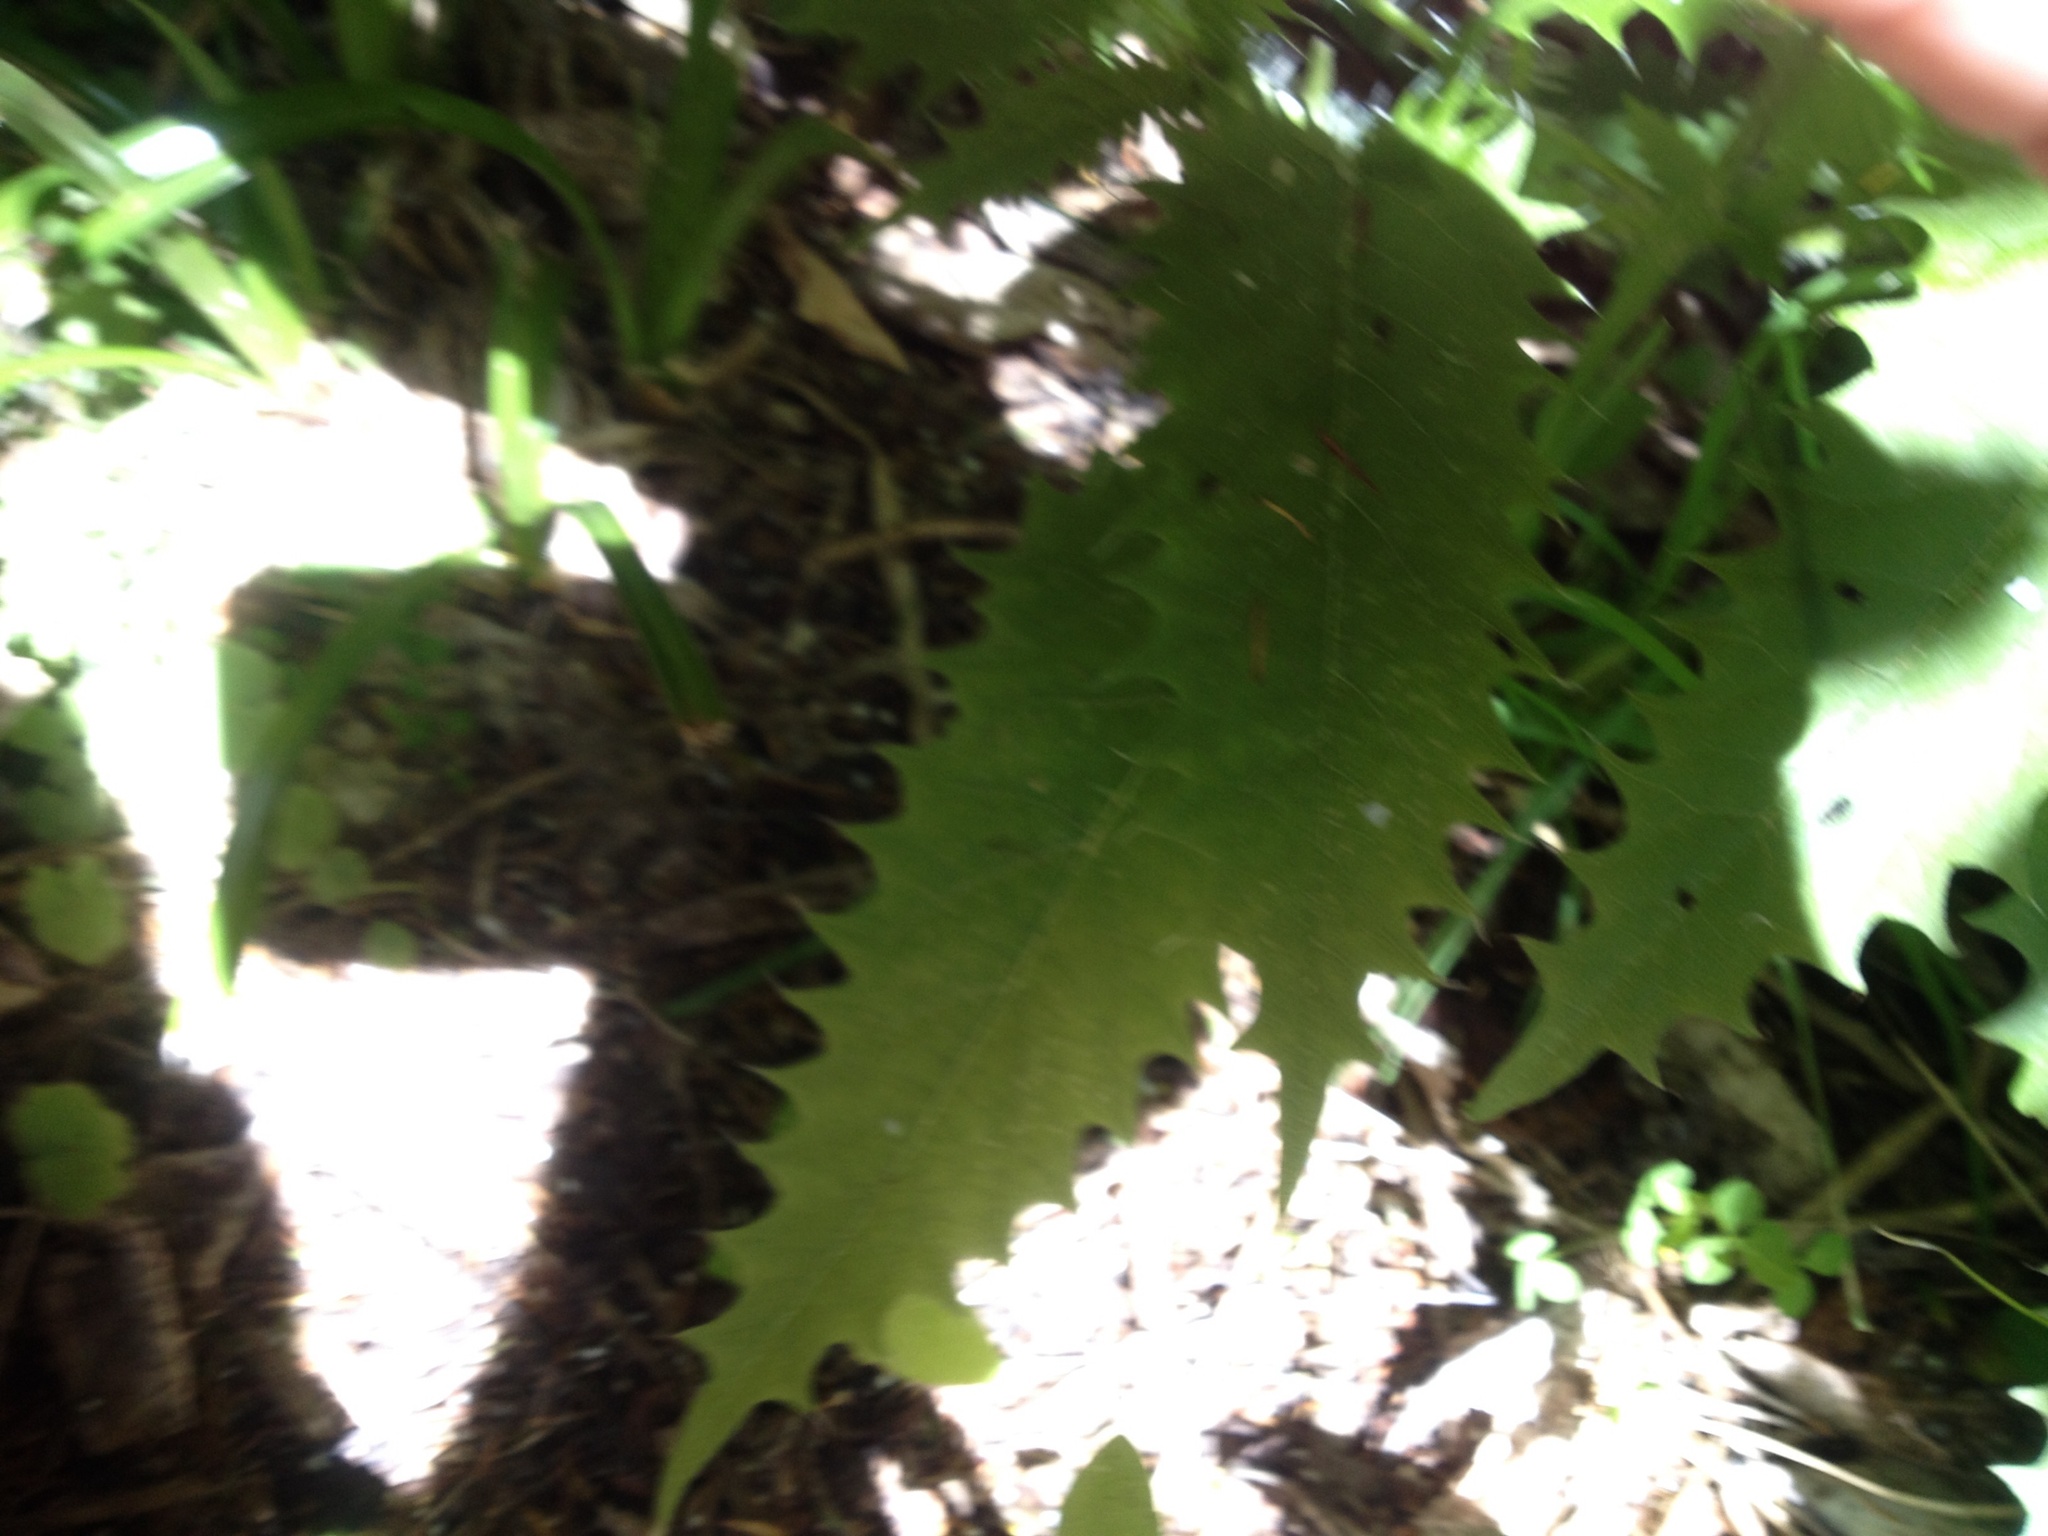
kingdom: Plantae
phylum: Tracheophyta
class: Magnoliopsida
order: Rosales
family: Urticaceae
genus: Urtica
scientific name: Urtica ferox
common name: Tree nettle
